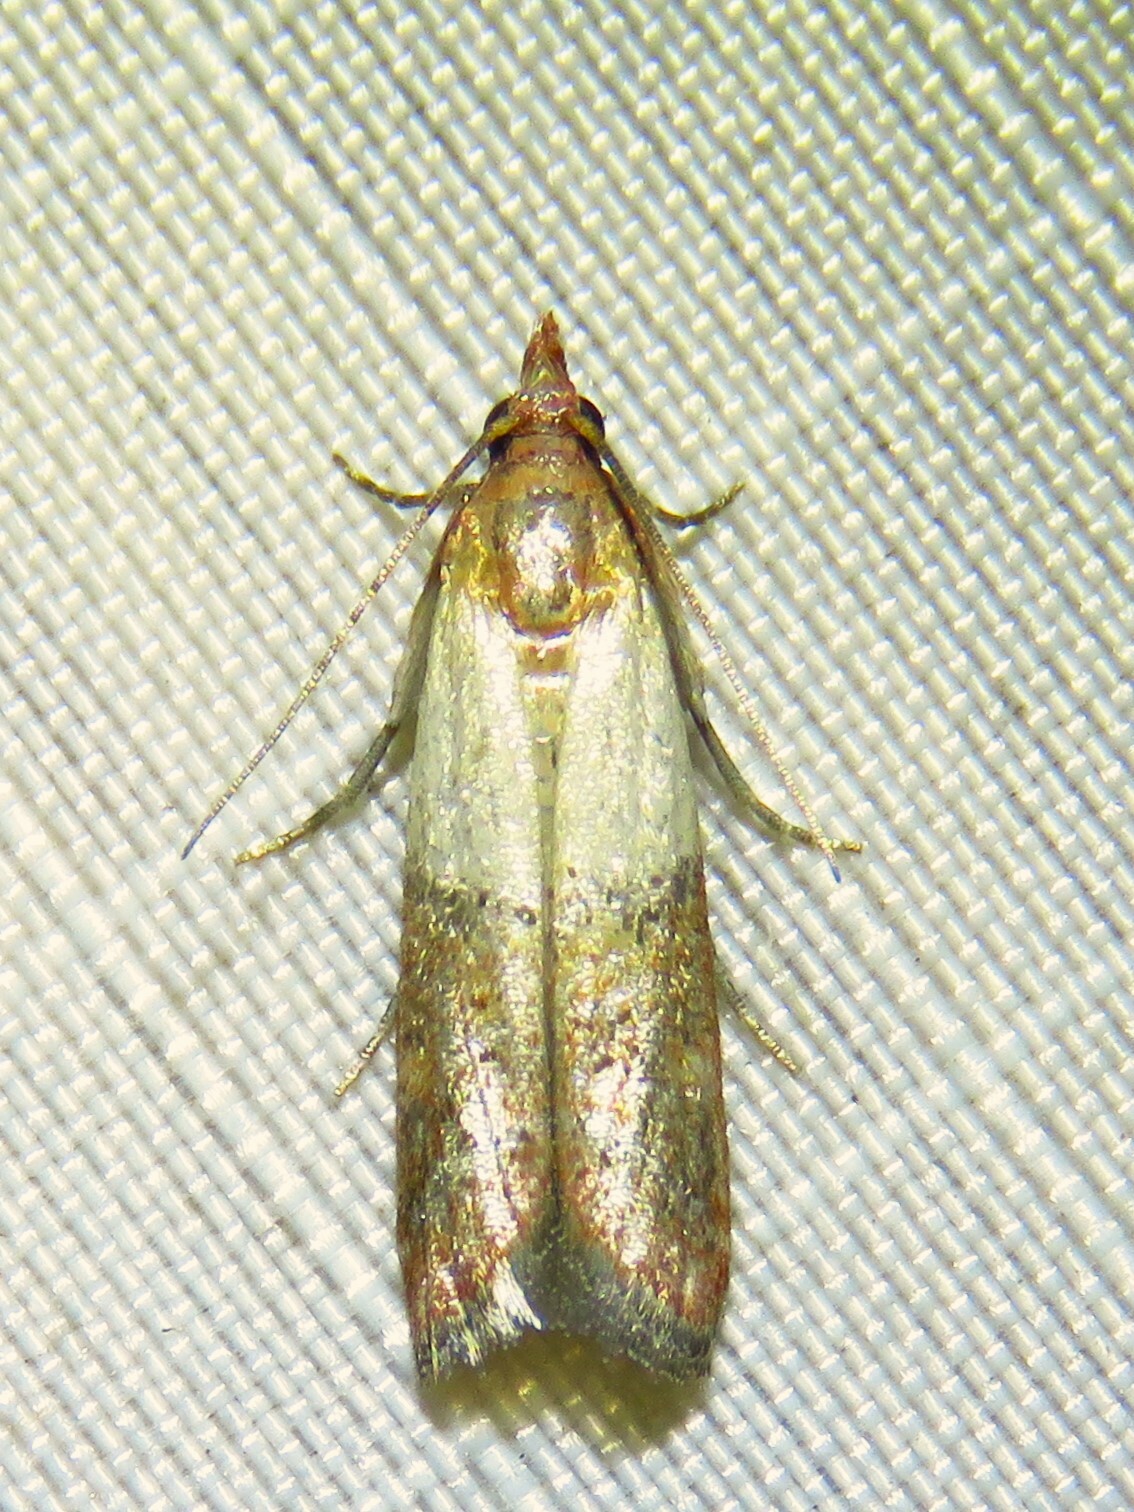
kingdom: Animalia
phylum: Arthropoda
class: Insecta
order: Lepidoptera
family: Pyralidae
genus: Plodia
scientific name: Plodia interpunctella
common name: Indian meal moth
